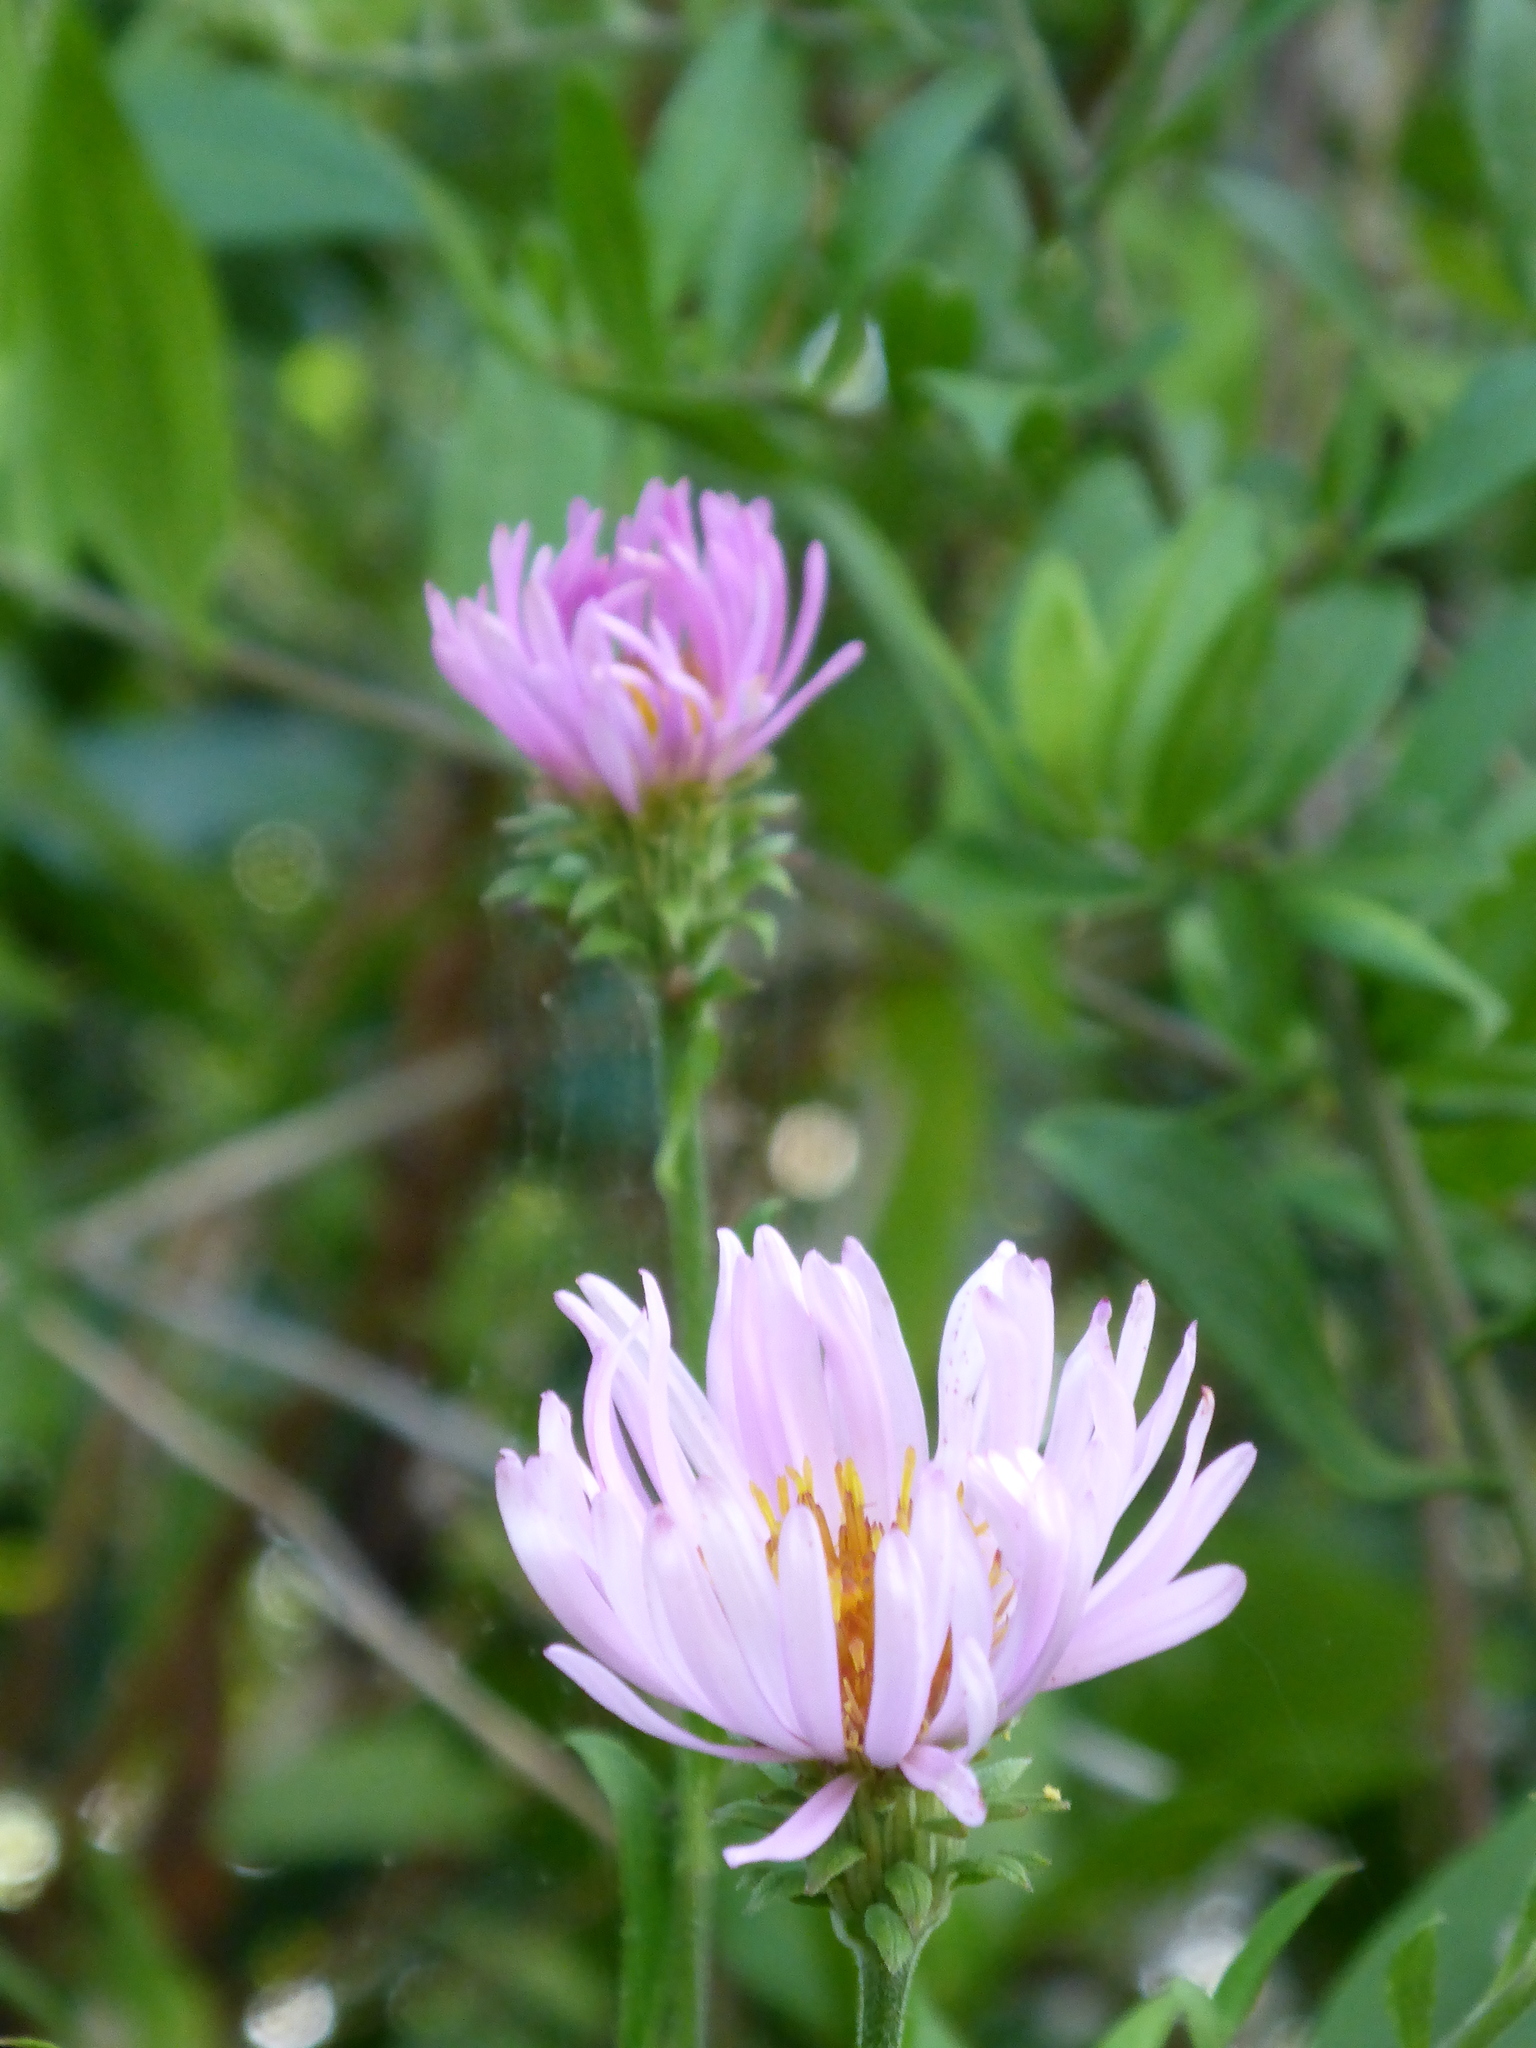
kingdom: Plantae
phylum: Tracheophyta
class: Magnoliopsida
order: Asterales
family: Asteraceae
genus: Ampelaster
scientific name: Ampelaster carolinianus
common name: Climbing aster
